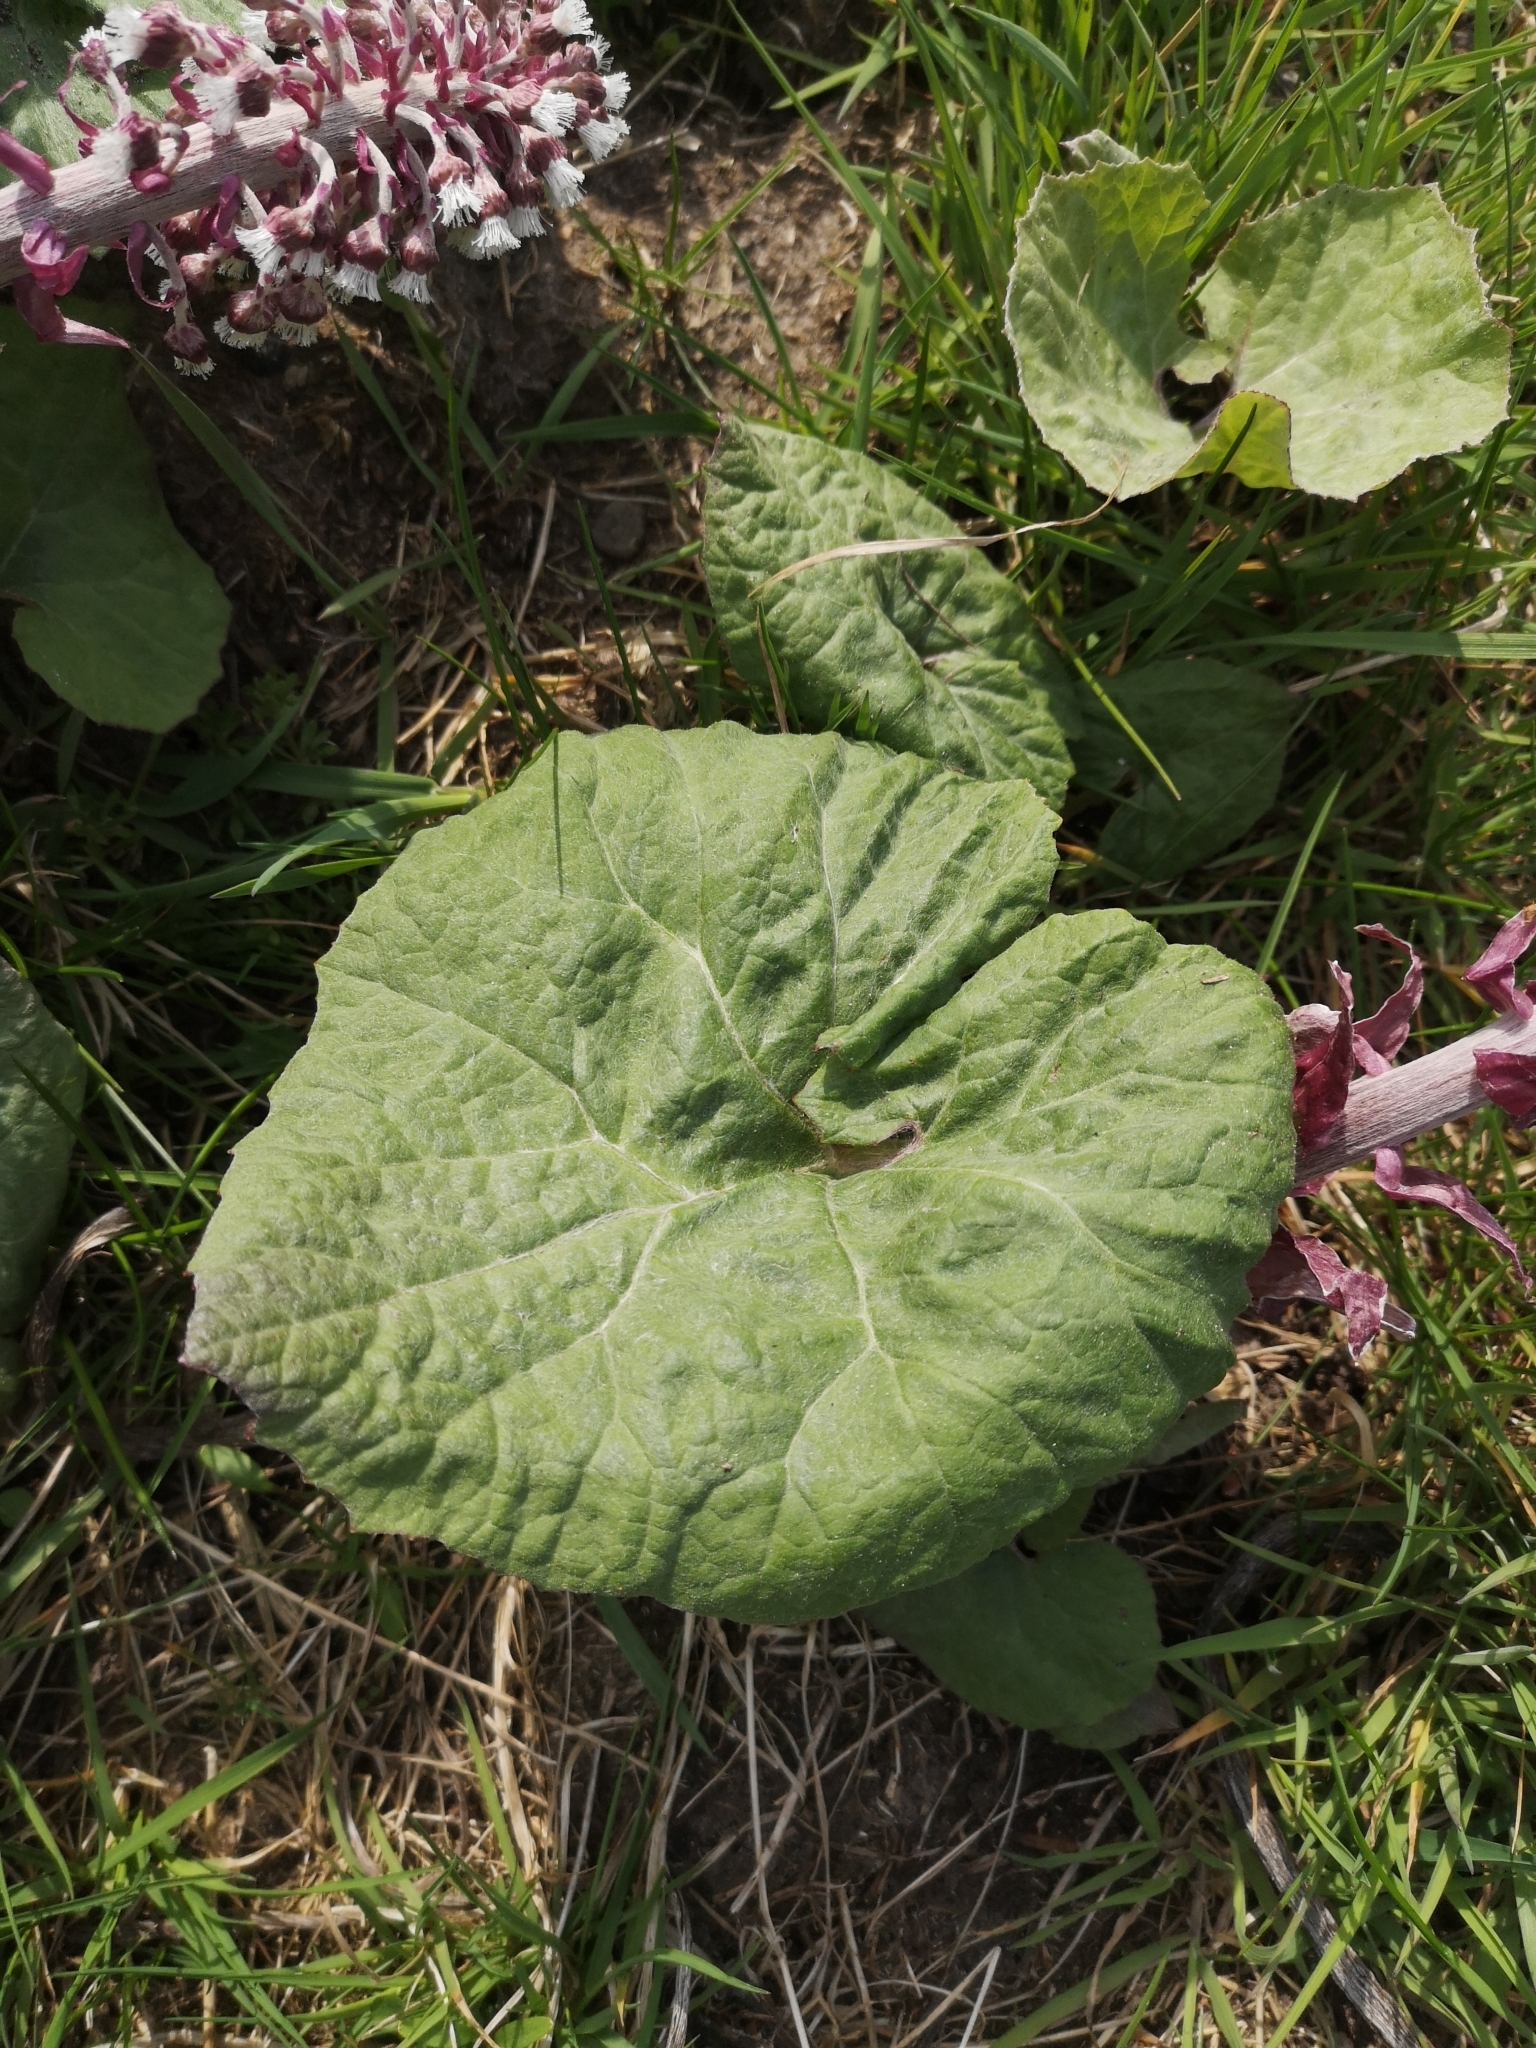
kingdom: Plantae
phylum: Tracheophyta
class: Magnoliopsida
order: Asterales
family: Asteraceae
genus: Petasites
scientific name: Petasites hybridus
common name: Butterbur
